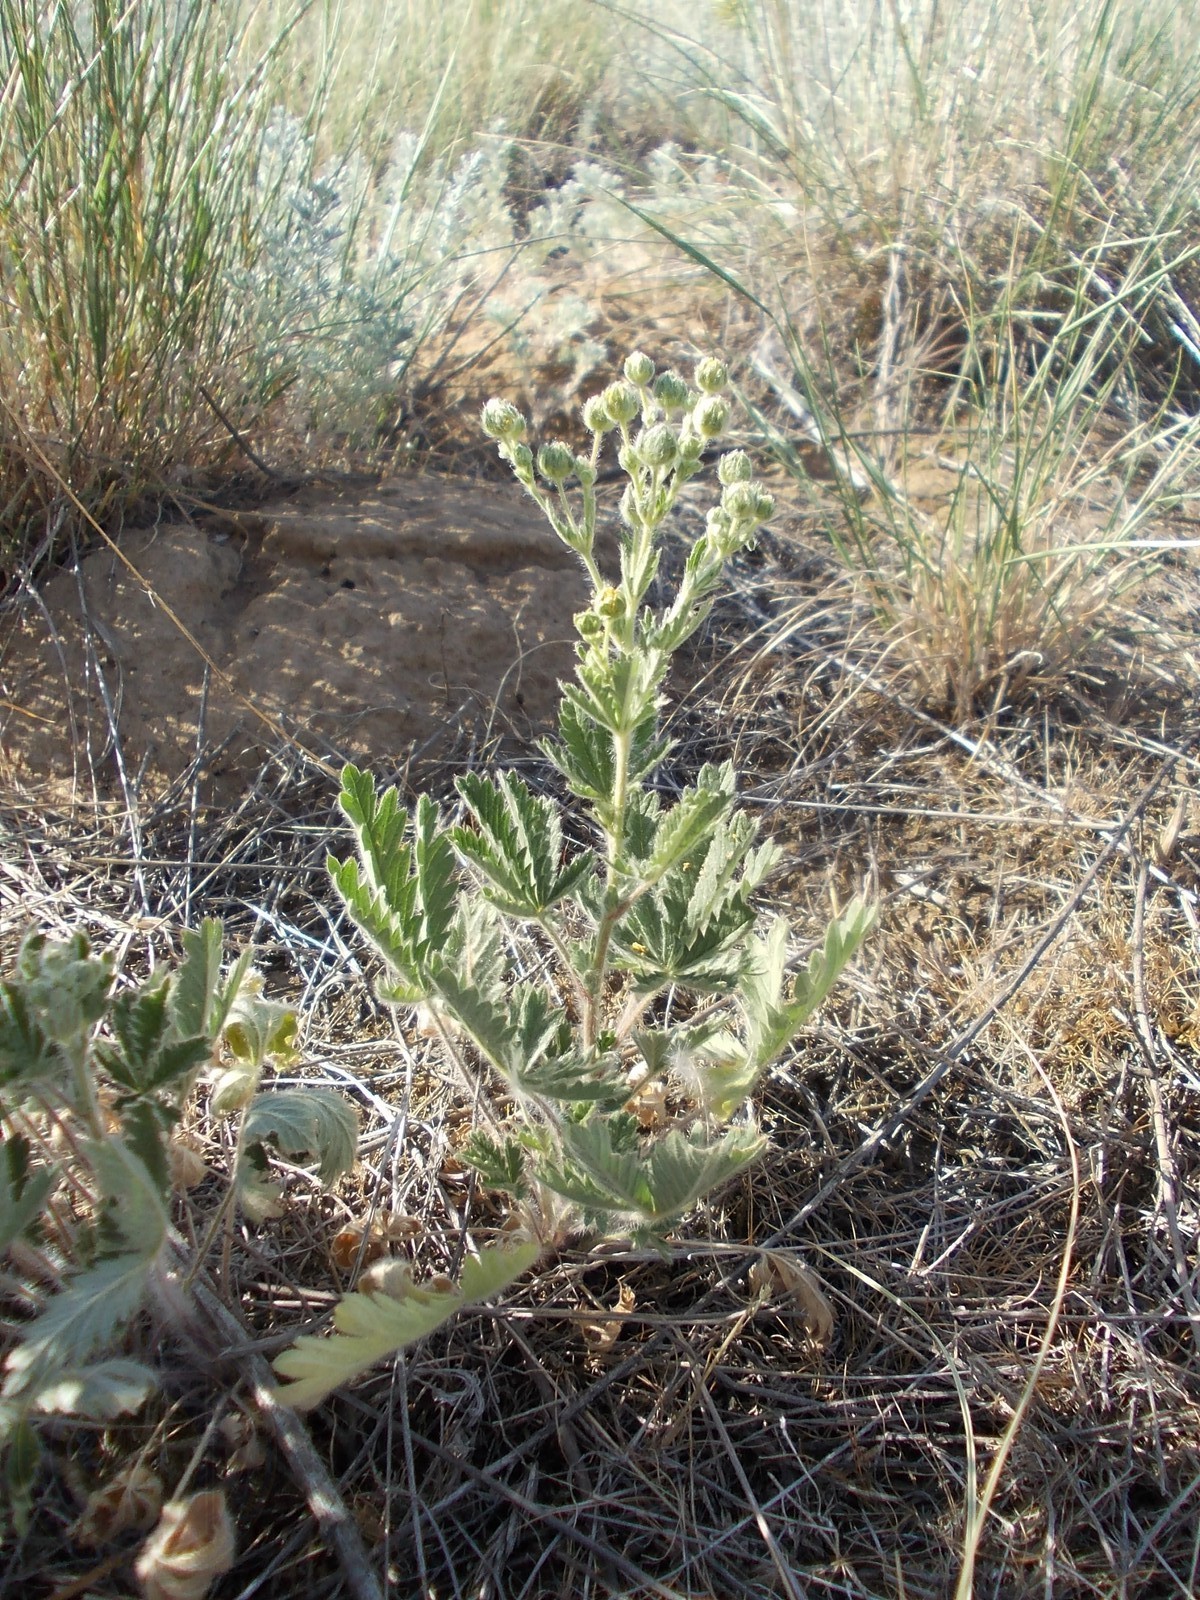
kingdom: Plantae
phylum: Tracheophyta
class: Magnoliopsida
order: Rosales
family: Rosaceae
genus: Potentilla
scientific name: Potentilla recta
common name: Sulphur cinquefoil
